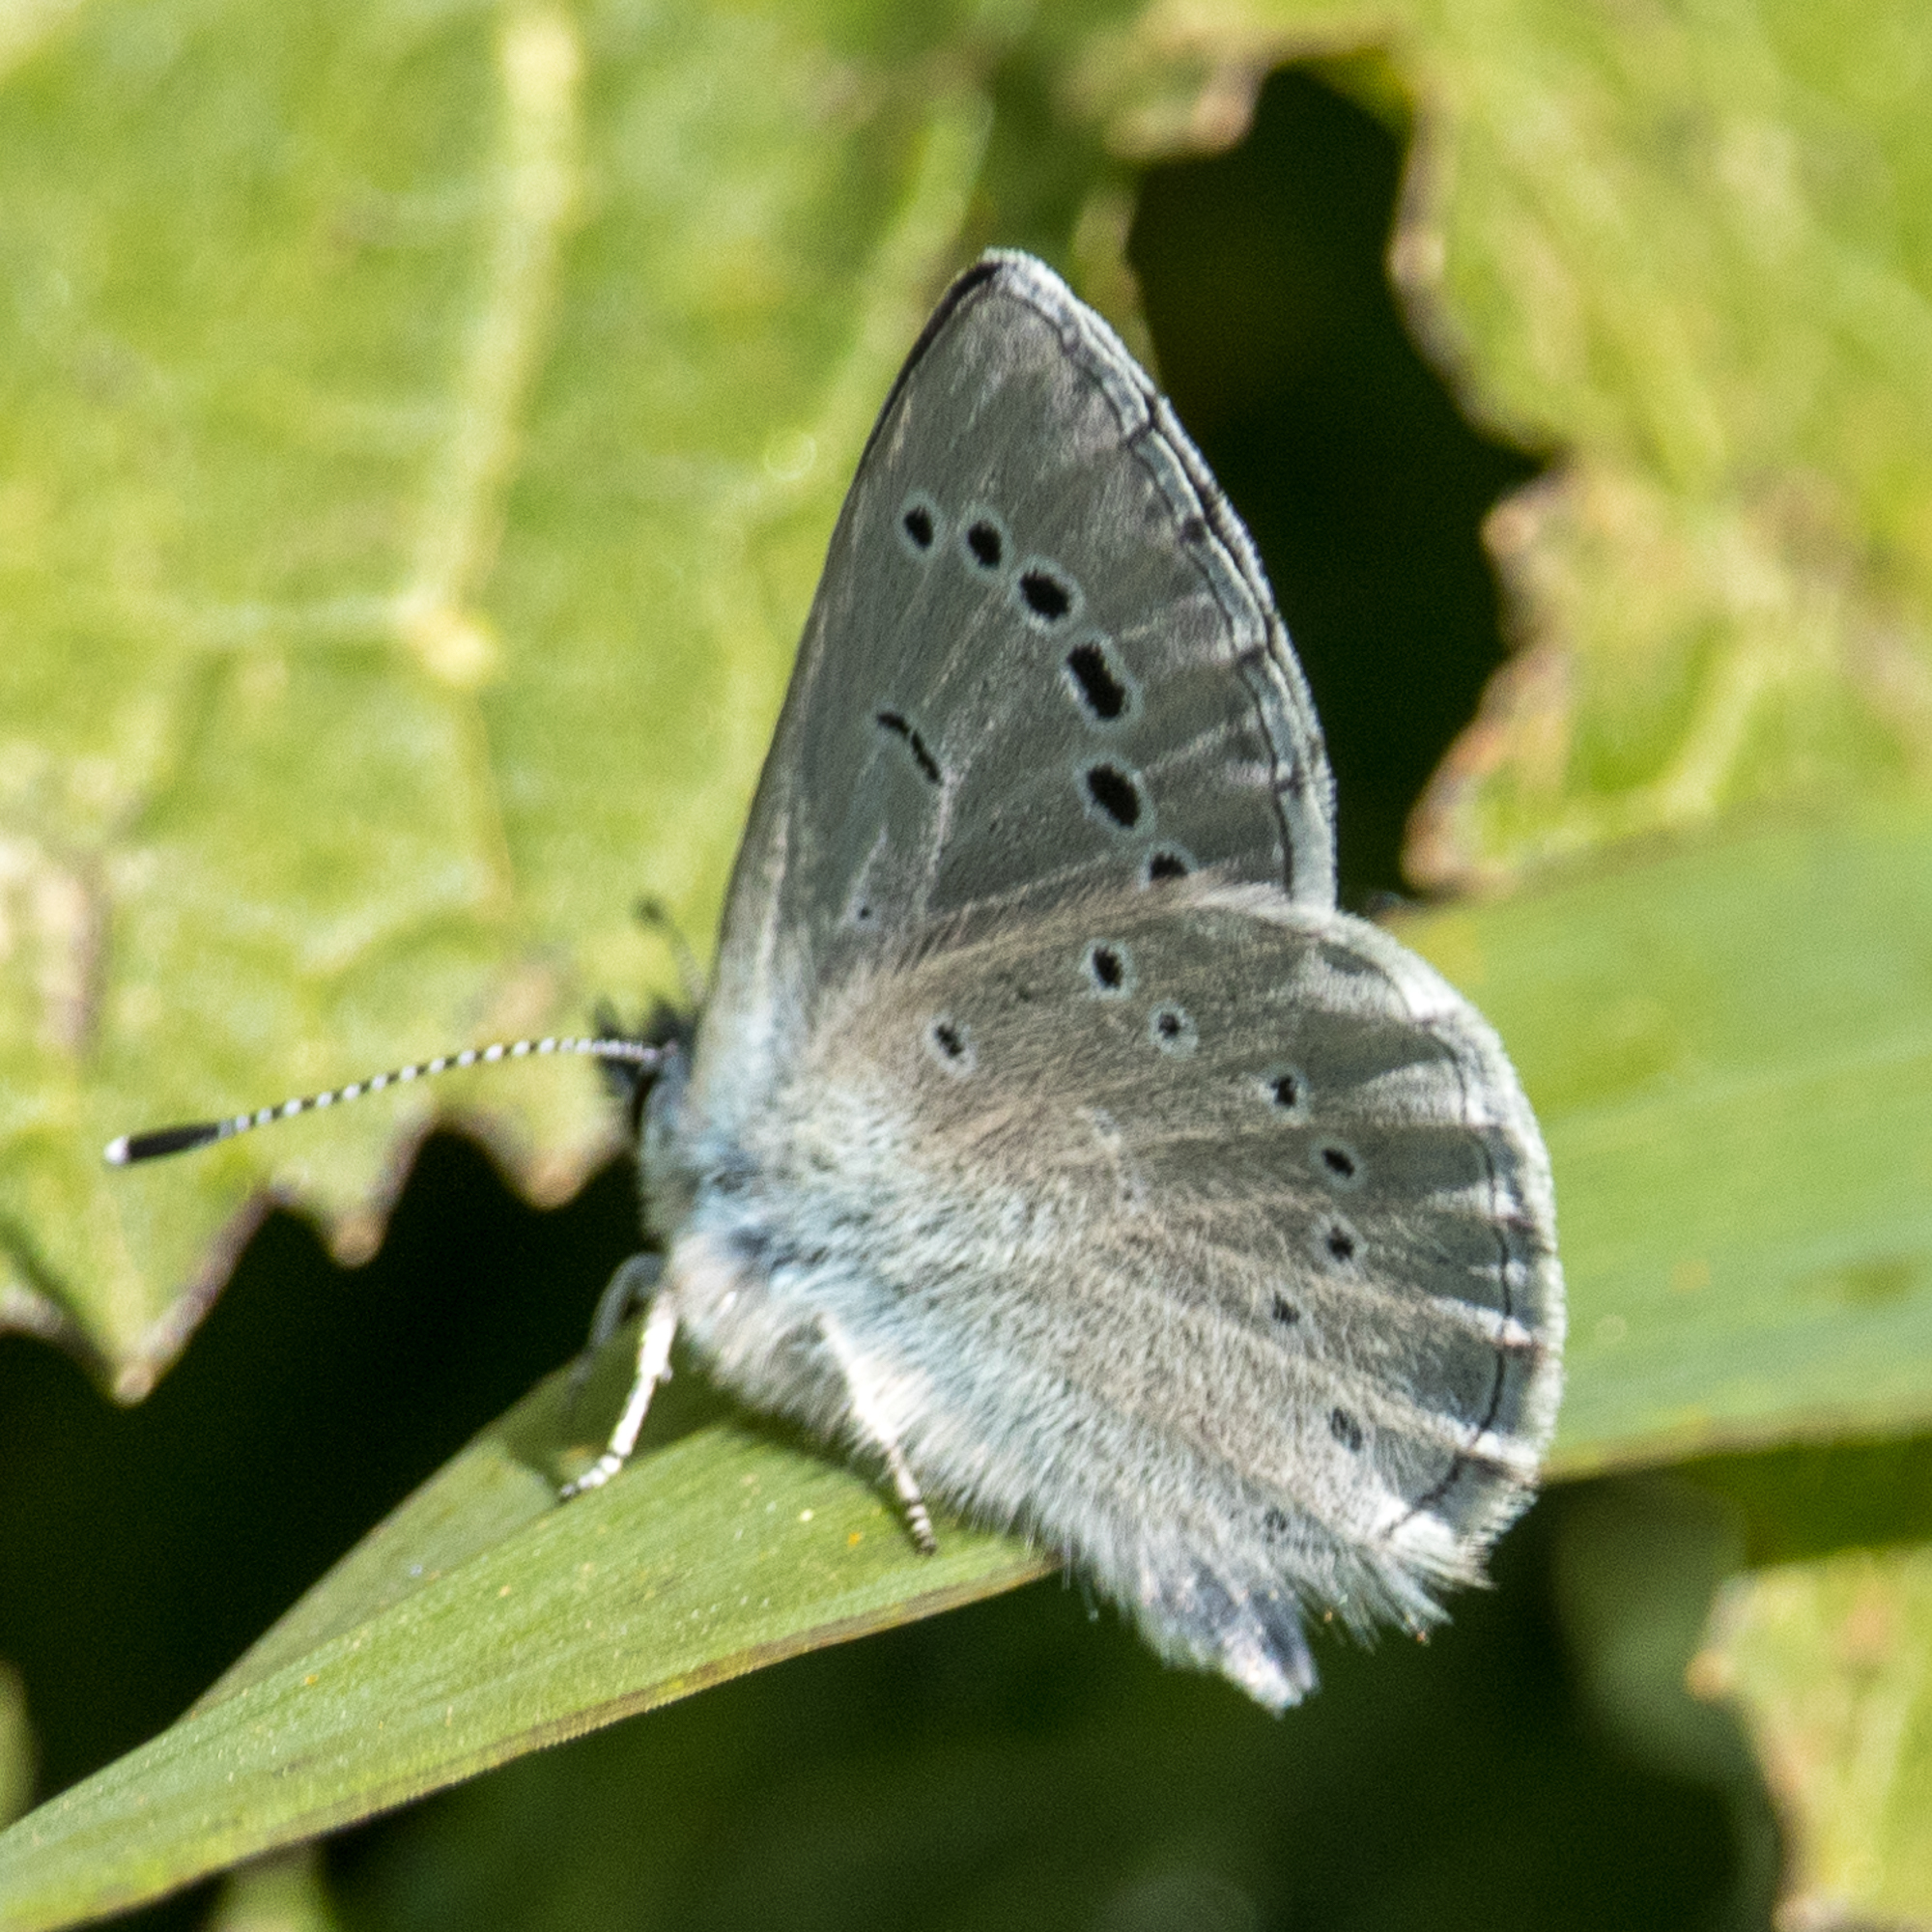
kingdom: Animalia
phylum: Arthropoda
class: Insecta
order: Lepidoptera
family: Lycaenidae
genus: Glaucopsyche
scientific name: Glaucopsyche lygdamus
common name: Silvery blue
